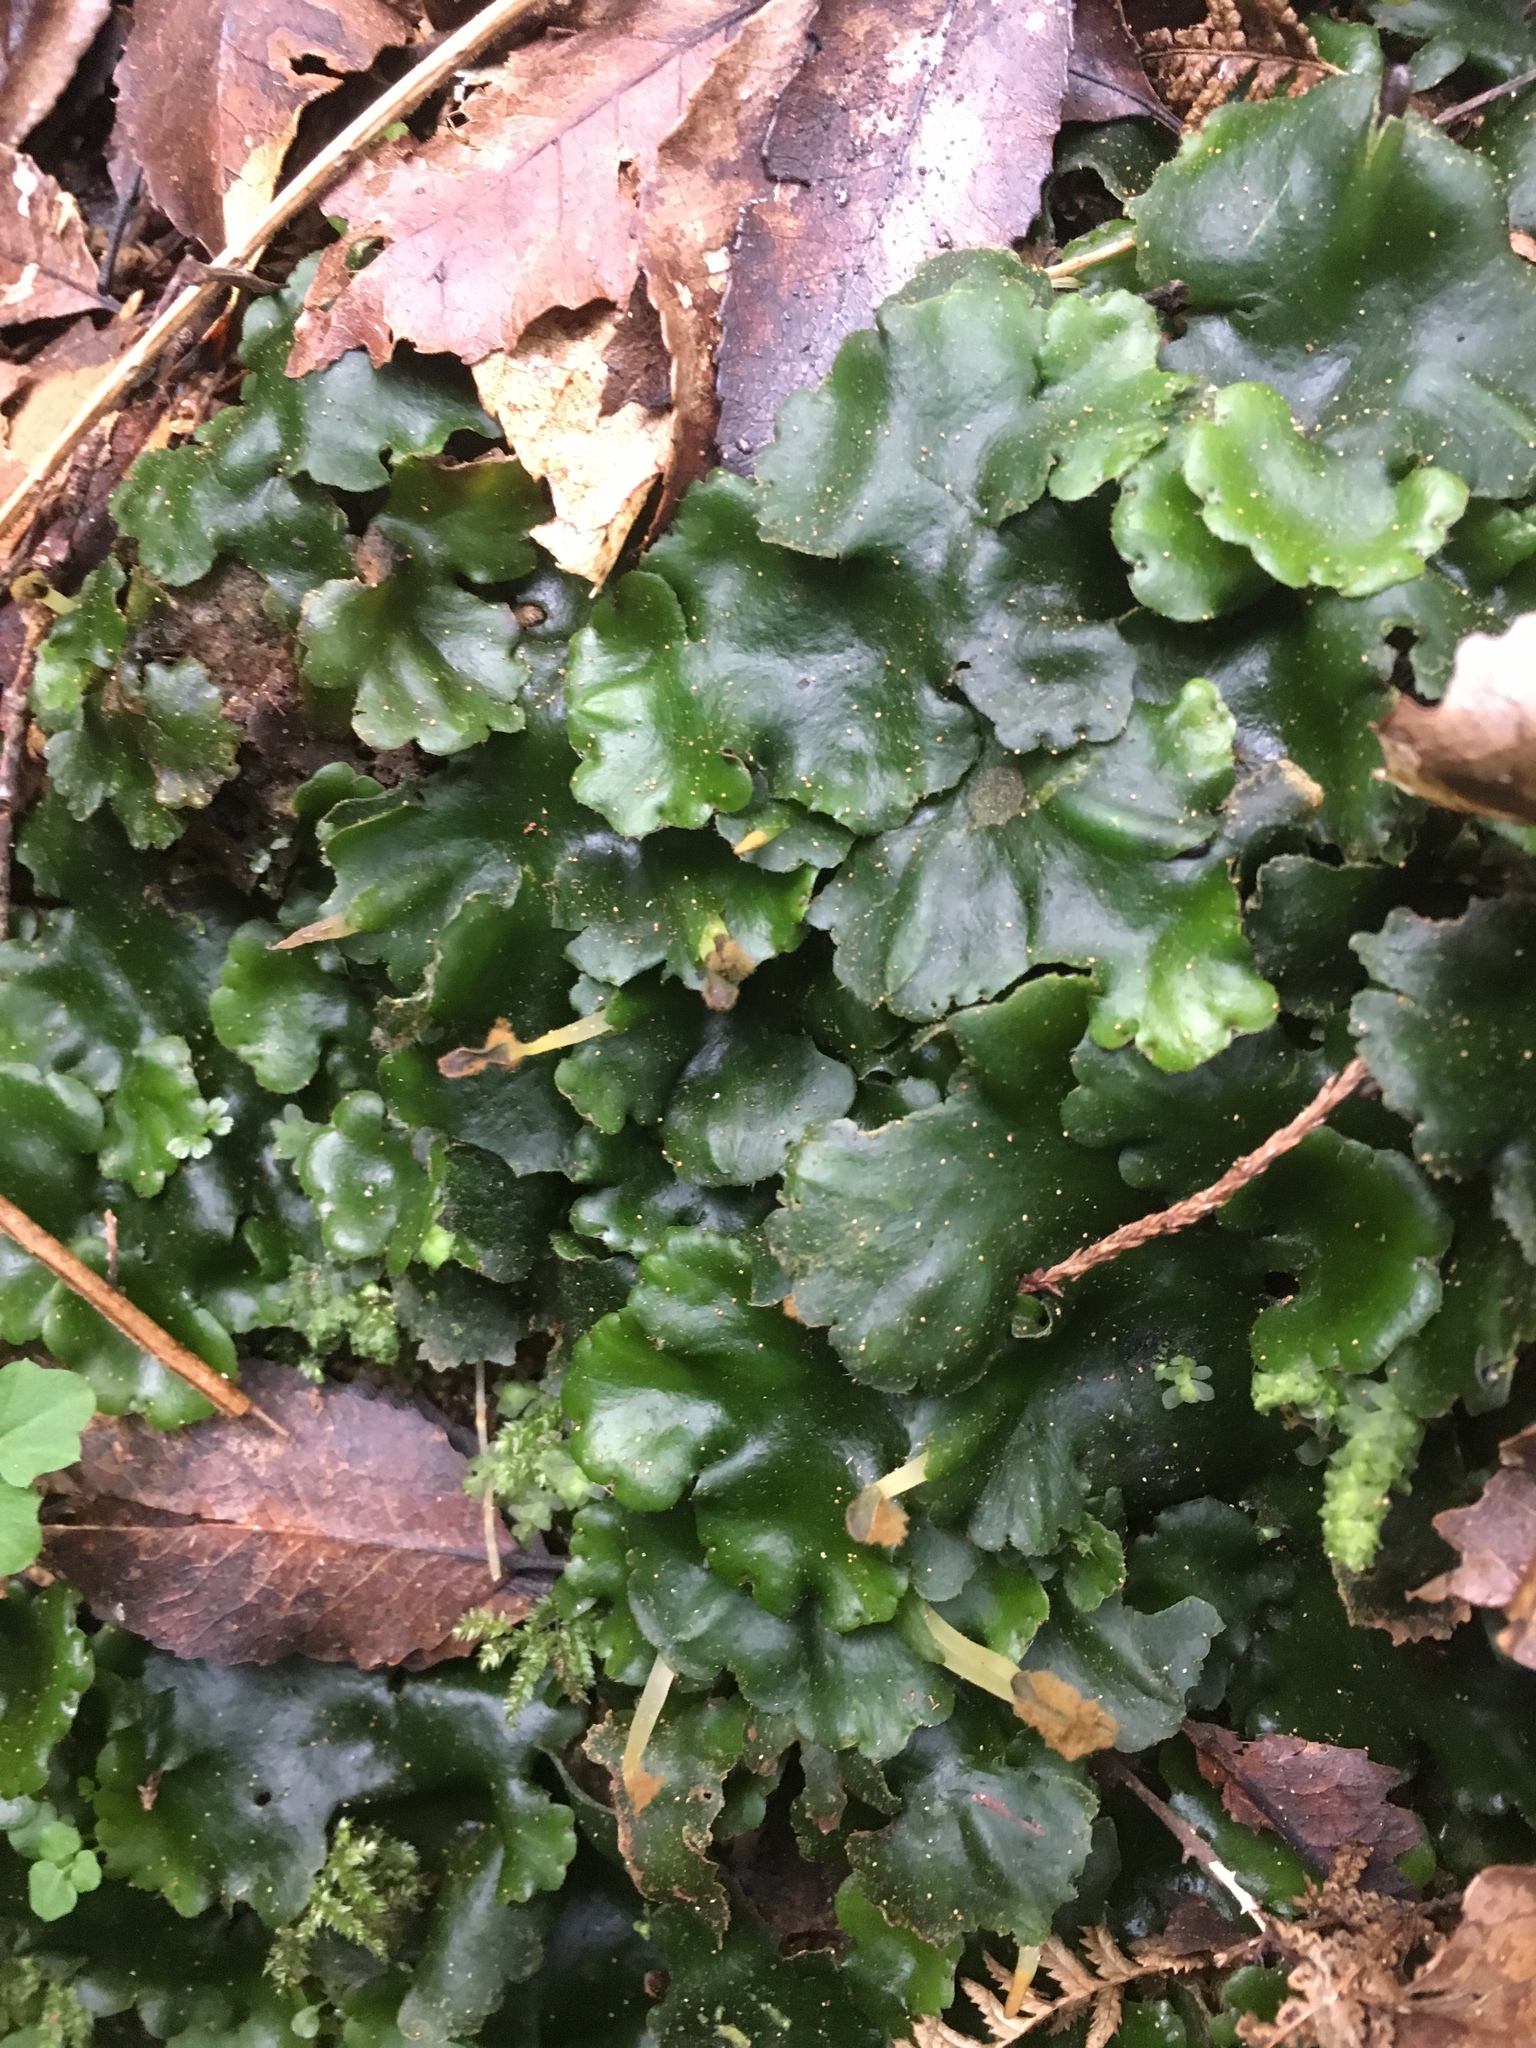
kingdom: Plantae
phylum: Marchantiophyta
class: Marchantiopsida
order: Marchantiales
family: Monocleaceae
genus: Monoclea
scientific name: Monoclea forsteri
